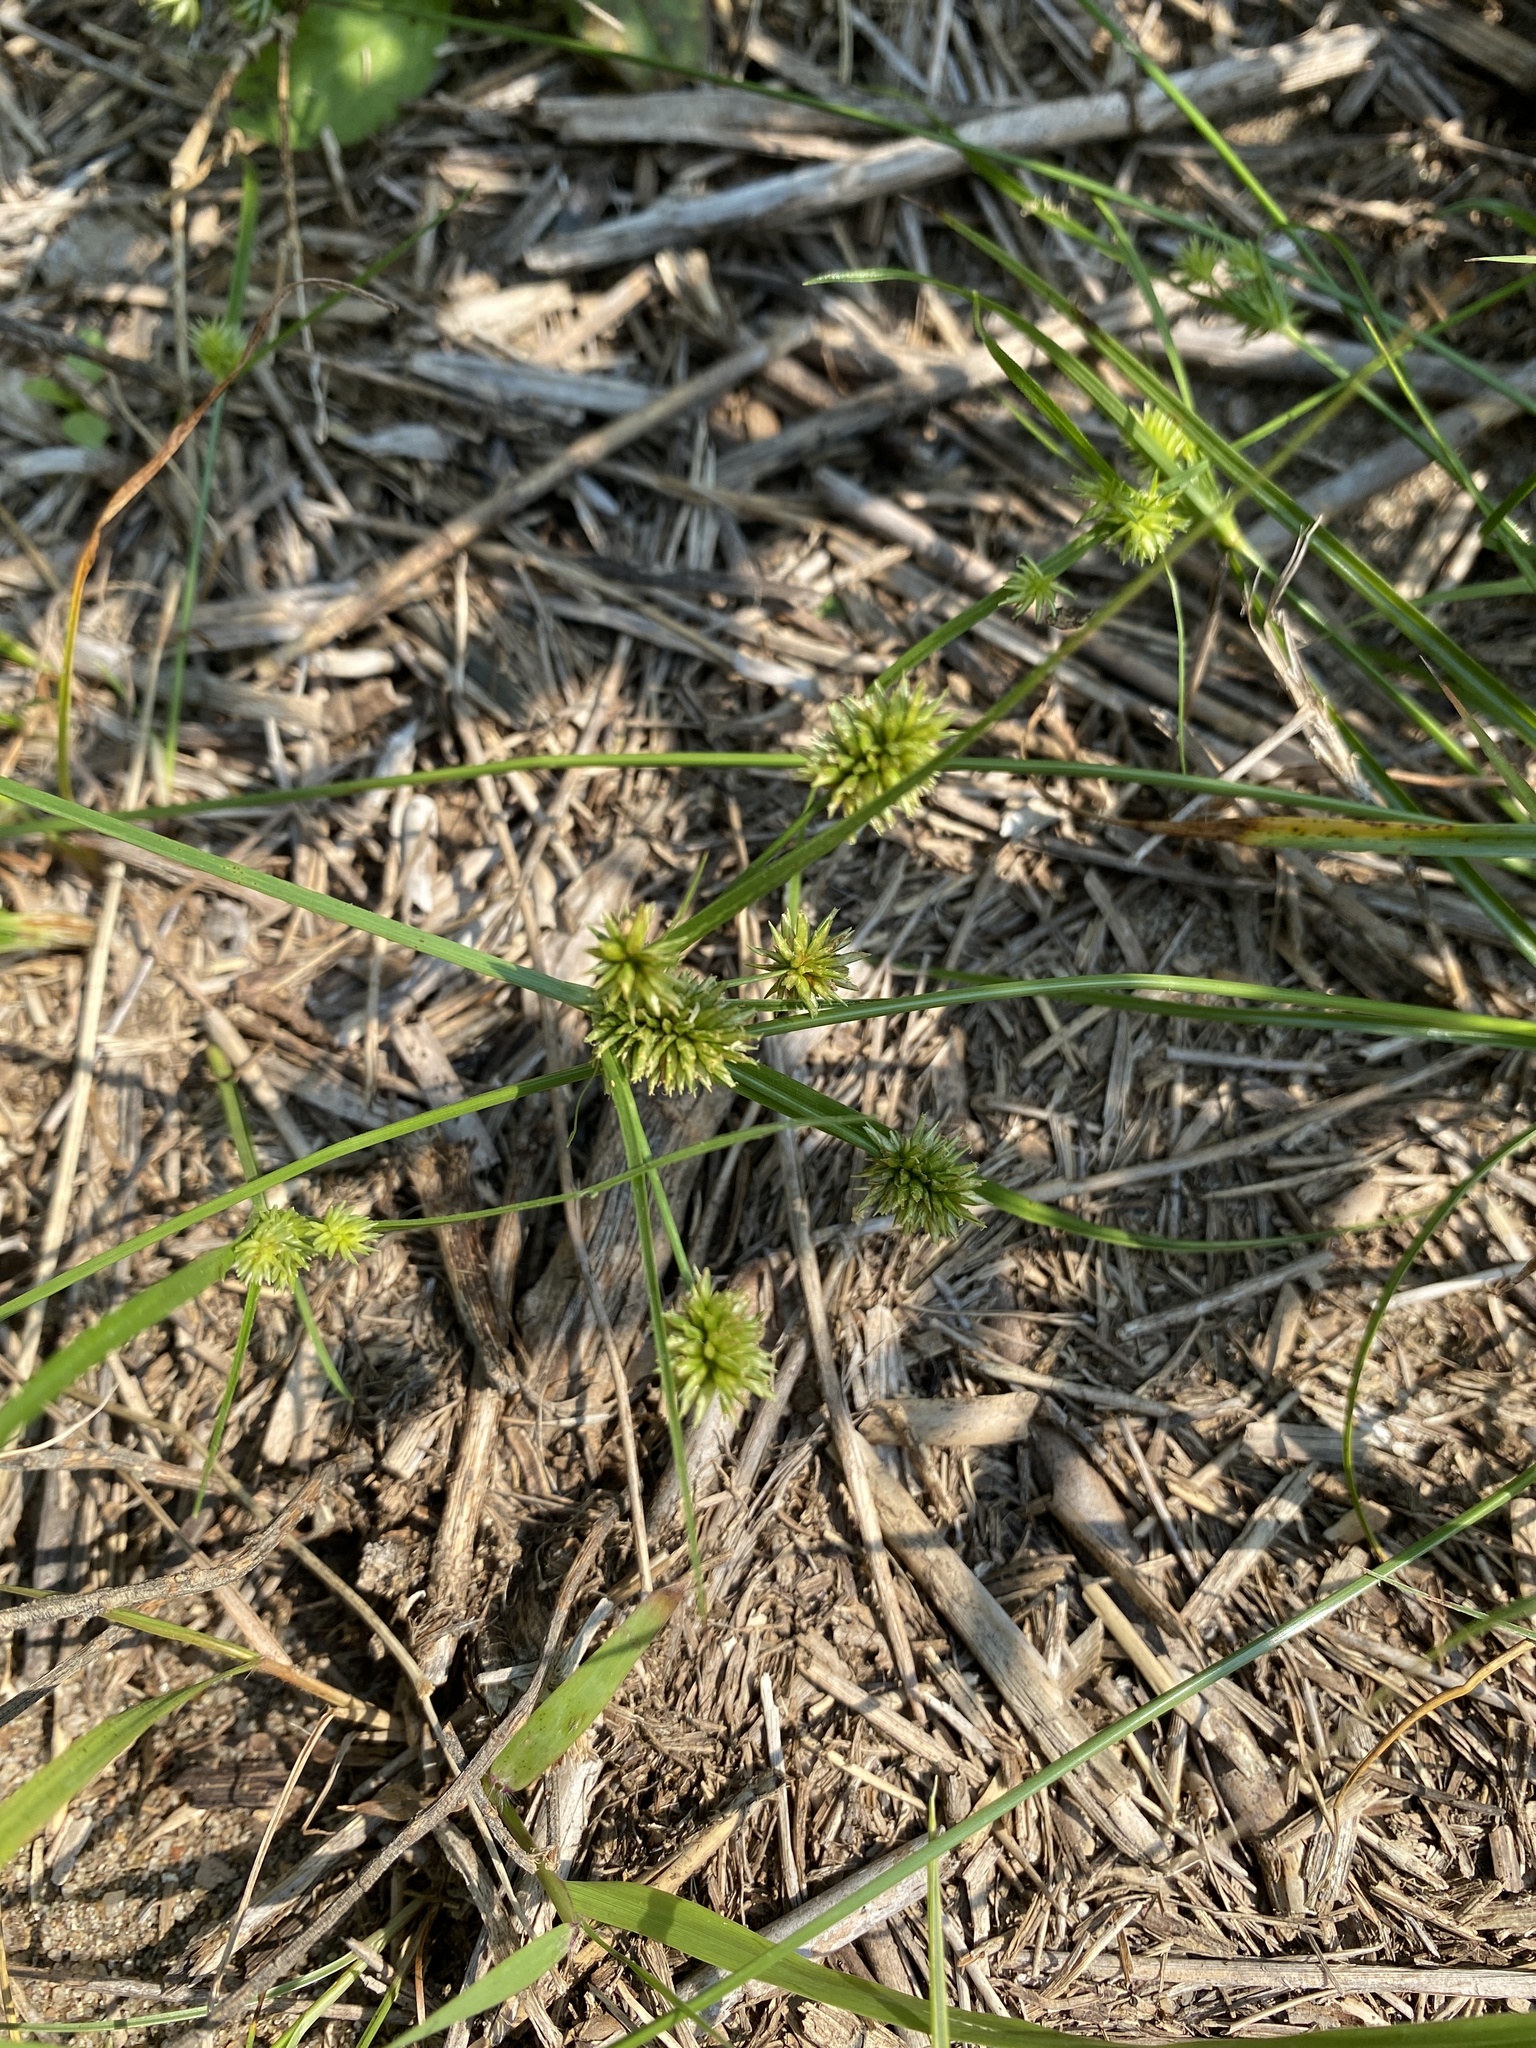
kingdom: Plantae
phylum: Tracheophyta
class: Liliopsida
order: Poales
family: Cyperaceae
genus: Cyperus
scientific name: Cyperus retrorsus
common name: Pinebarren flat sedge
